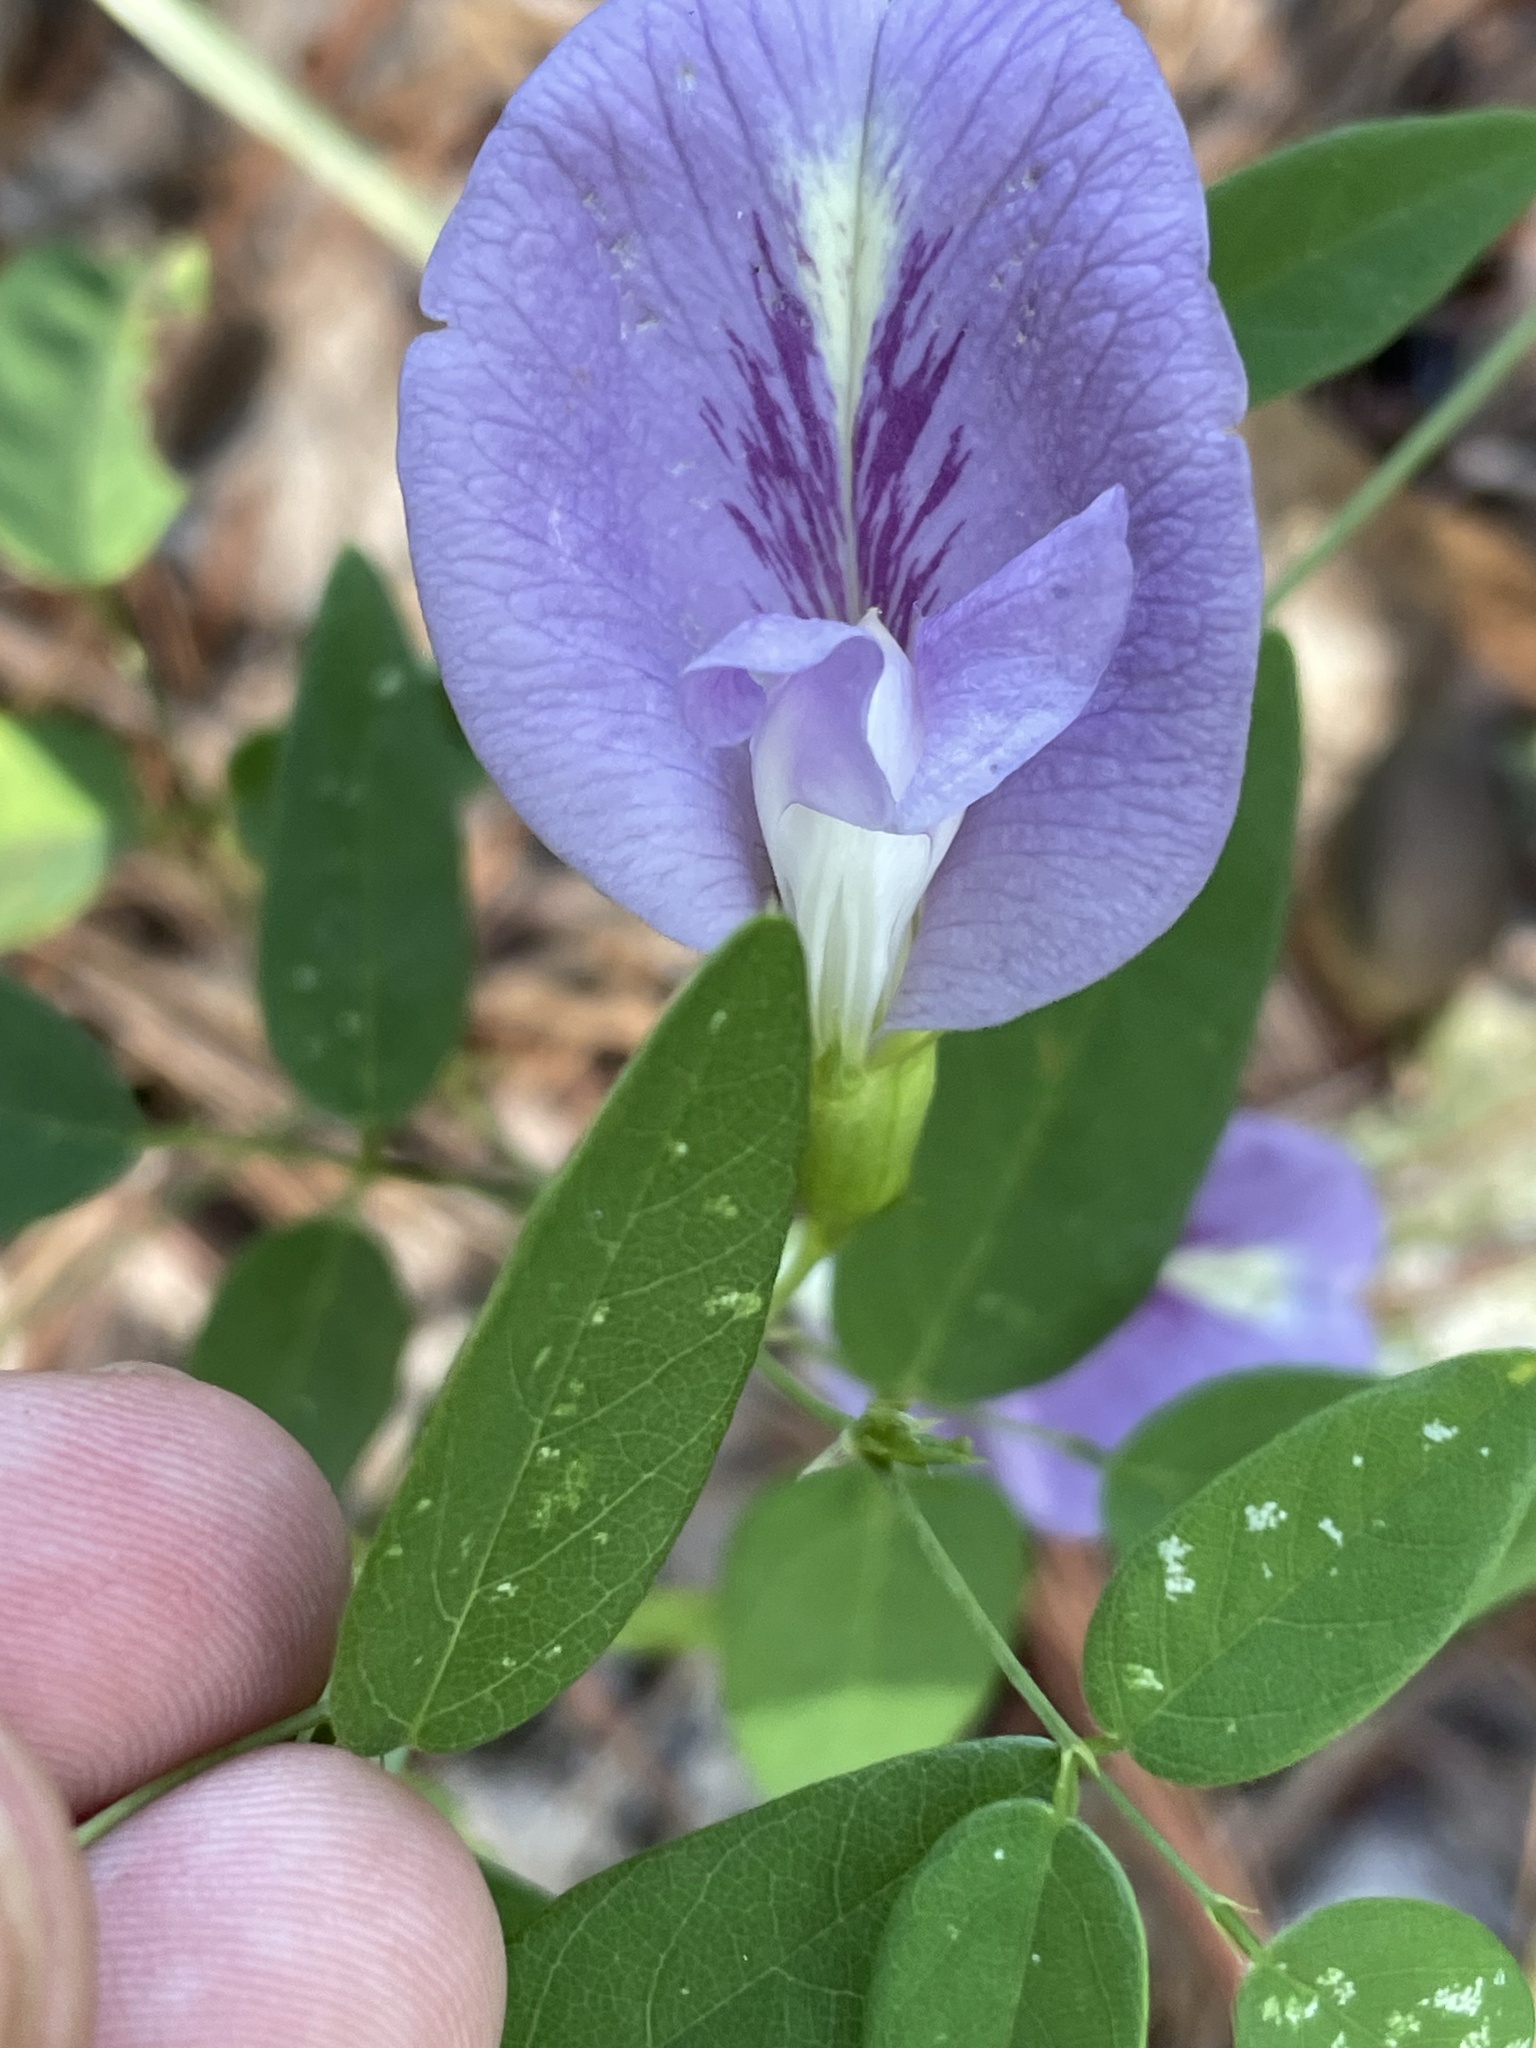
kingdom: Plantae
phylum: Tracheophyta
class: Magnoliopsida
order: Fabales
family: Fabaceae
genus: Clitoria
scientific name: Clitoria mariana
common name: Butterfly-pea
